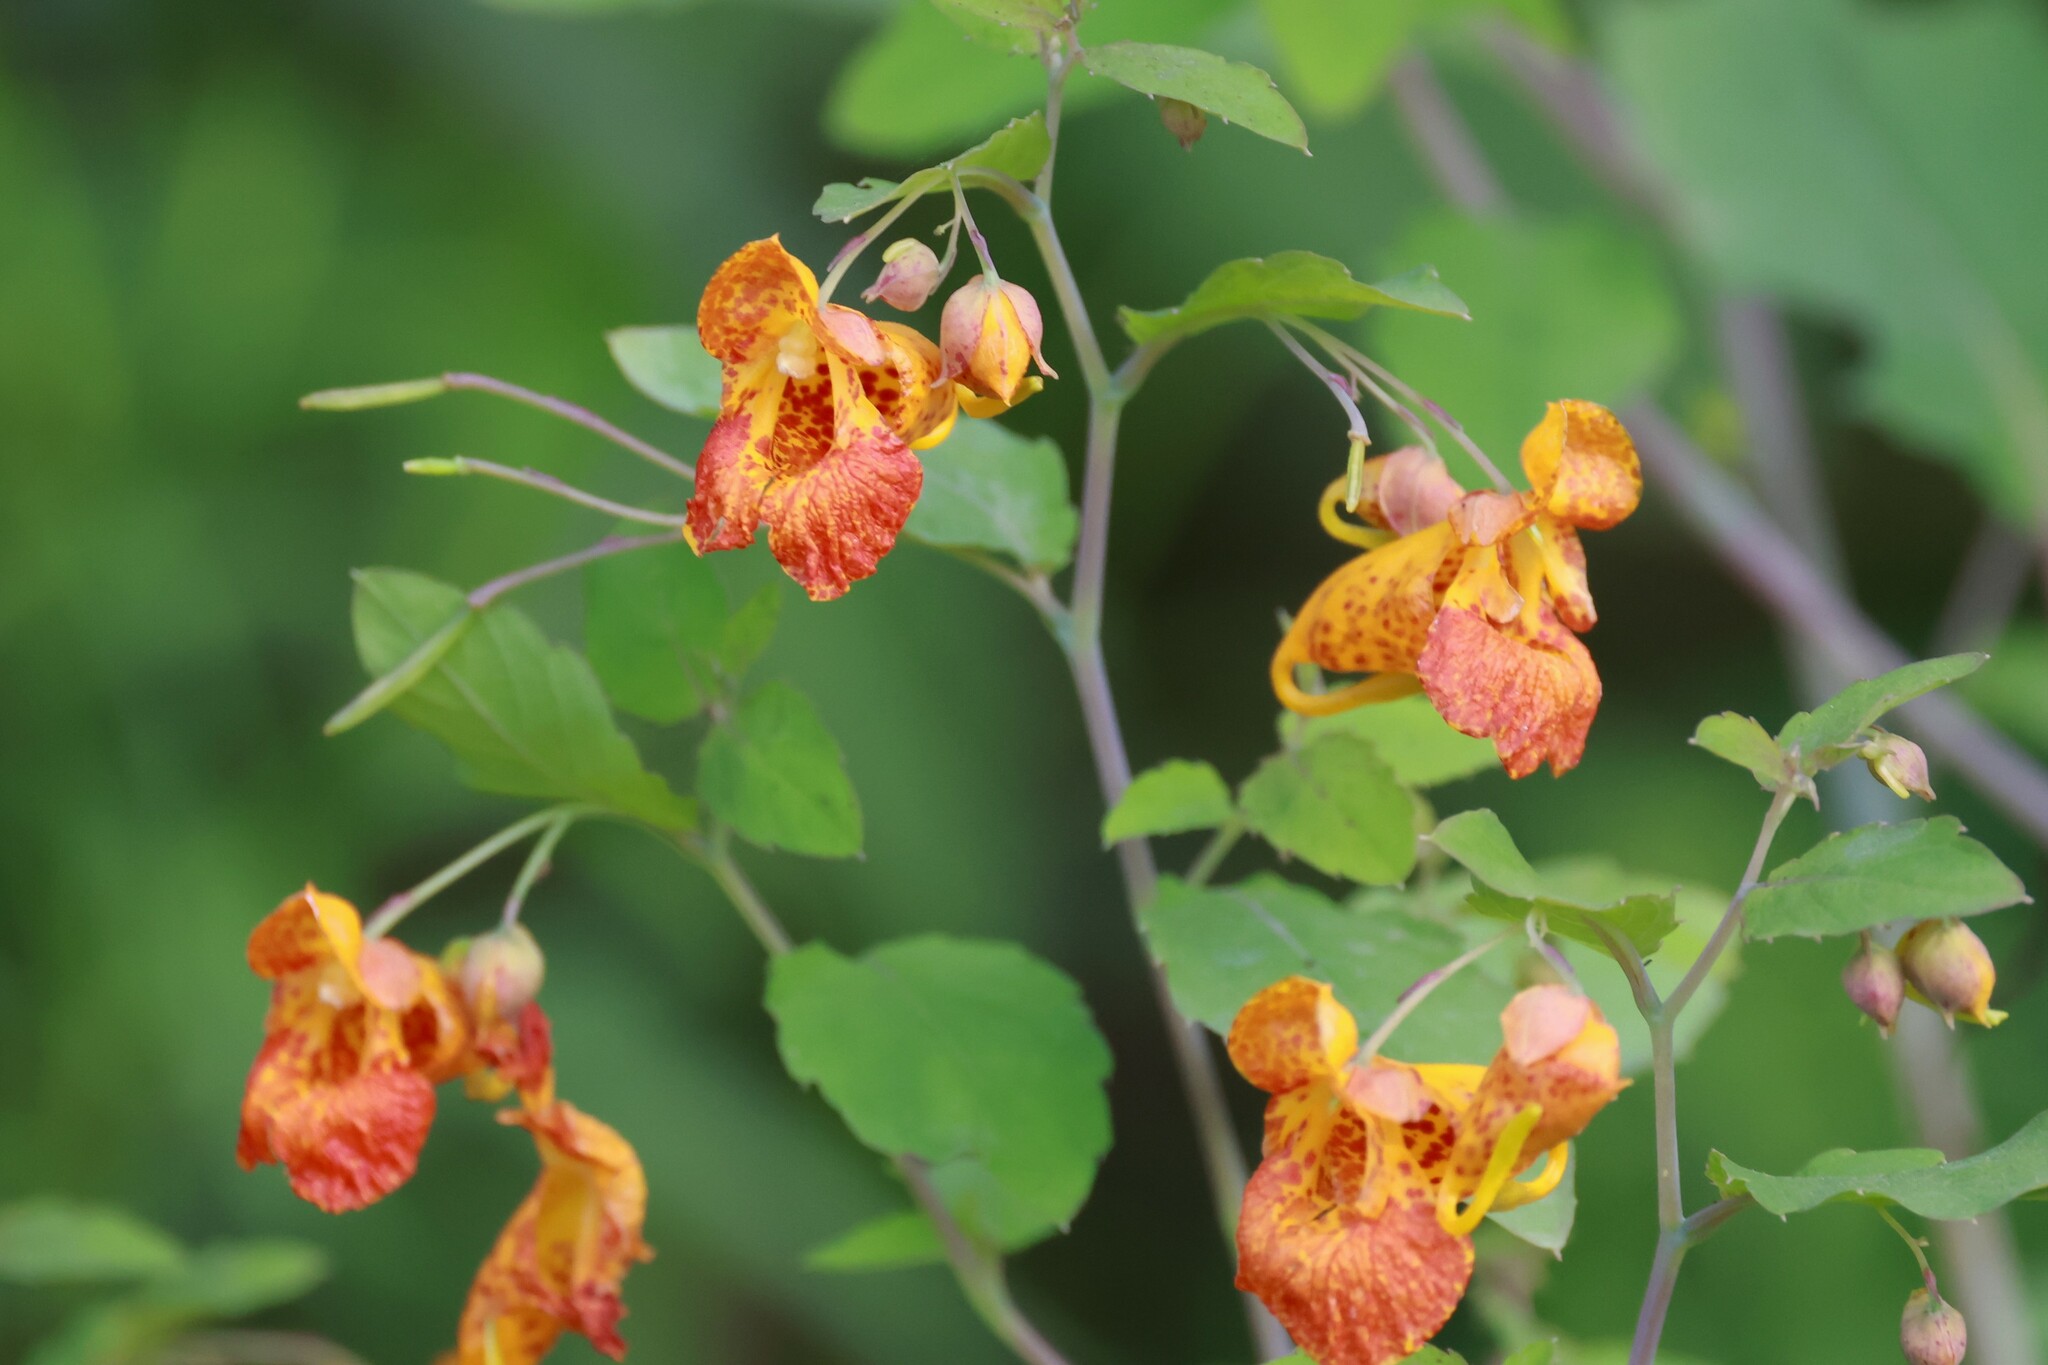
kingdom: Plantae
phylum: Tracheophyta
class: Magnoliopsida
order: Ericales
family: Balsaminaceae
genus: Impatiens
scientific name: Impatiens capensis
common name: Orange balsam
